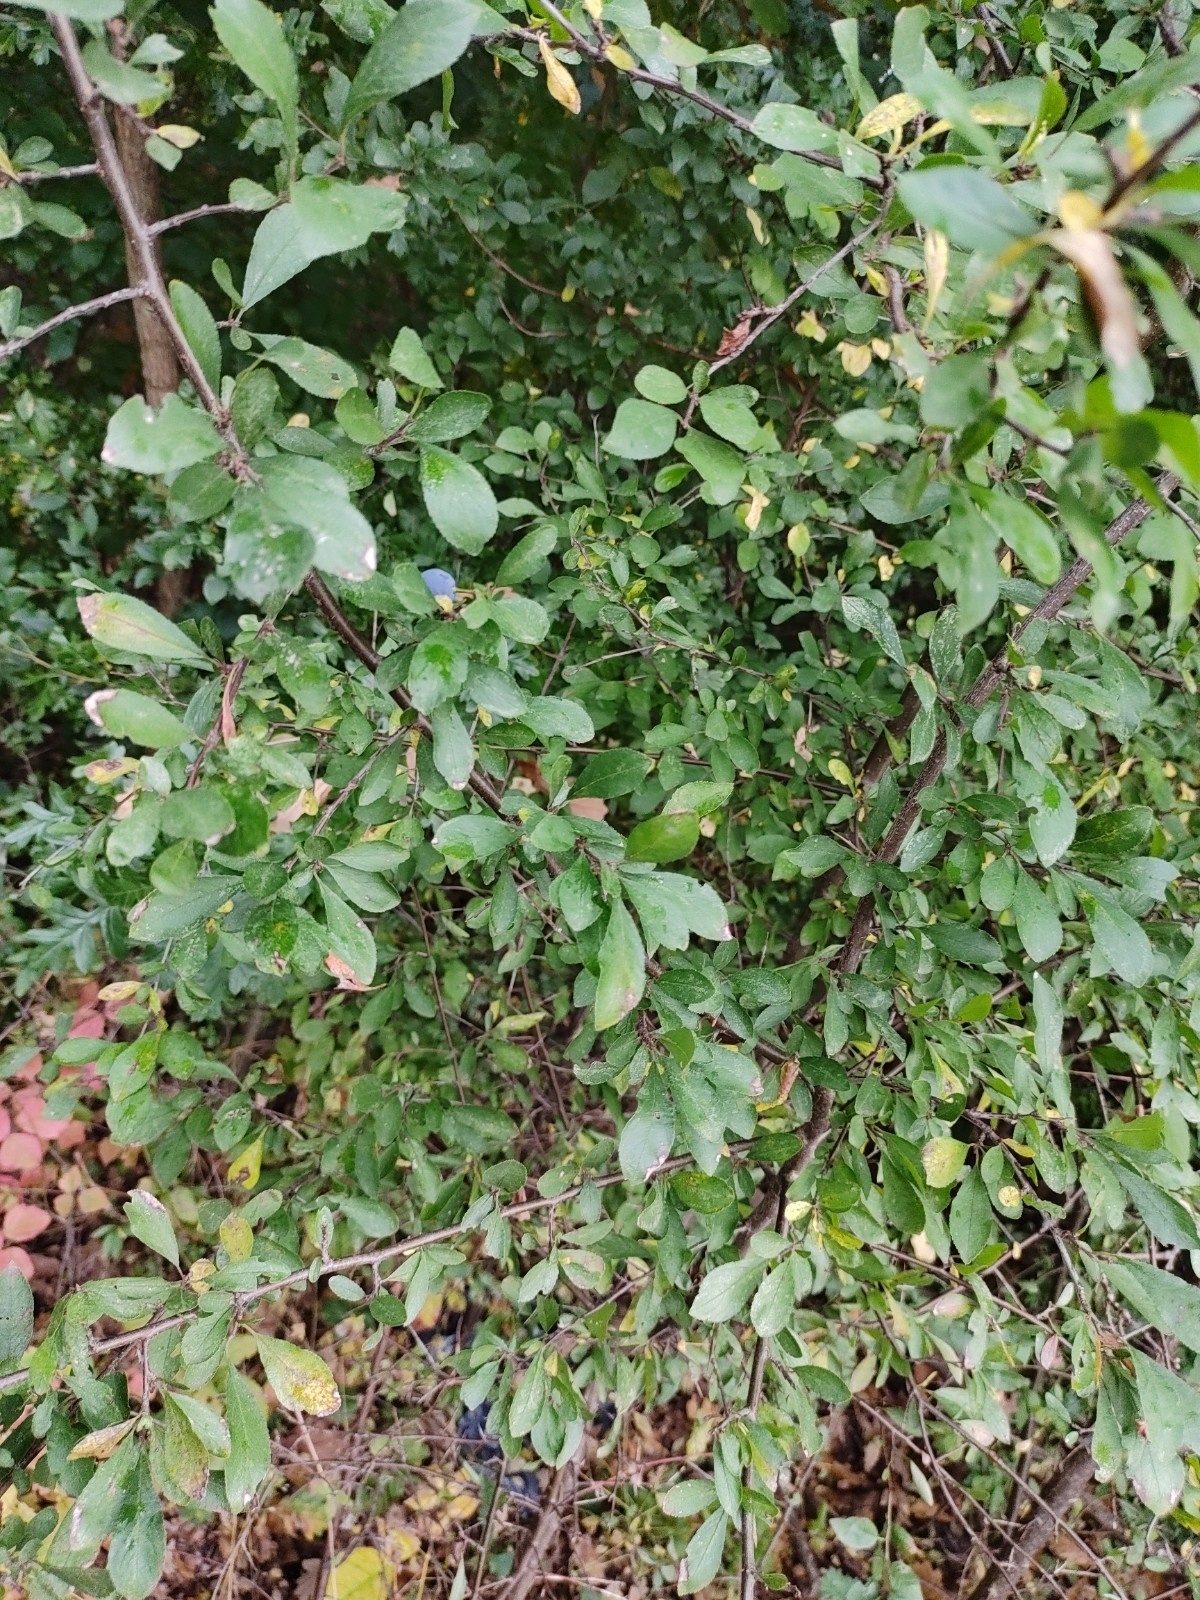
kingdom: Plantae
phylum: Tracheophyta
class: Magnoliopsida
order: Rosales
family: Rosaceae
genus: Prunus
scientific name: Prunus spinosa
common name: Blackthorn
